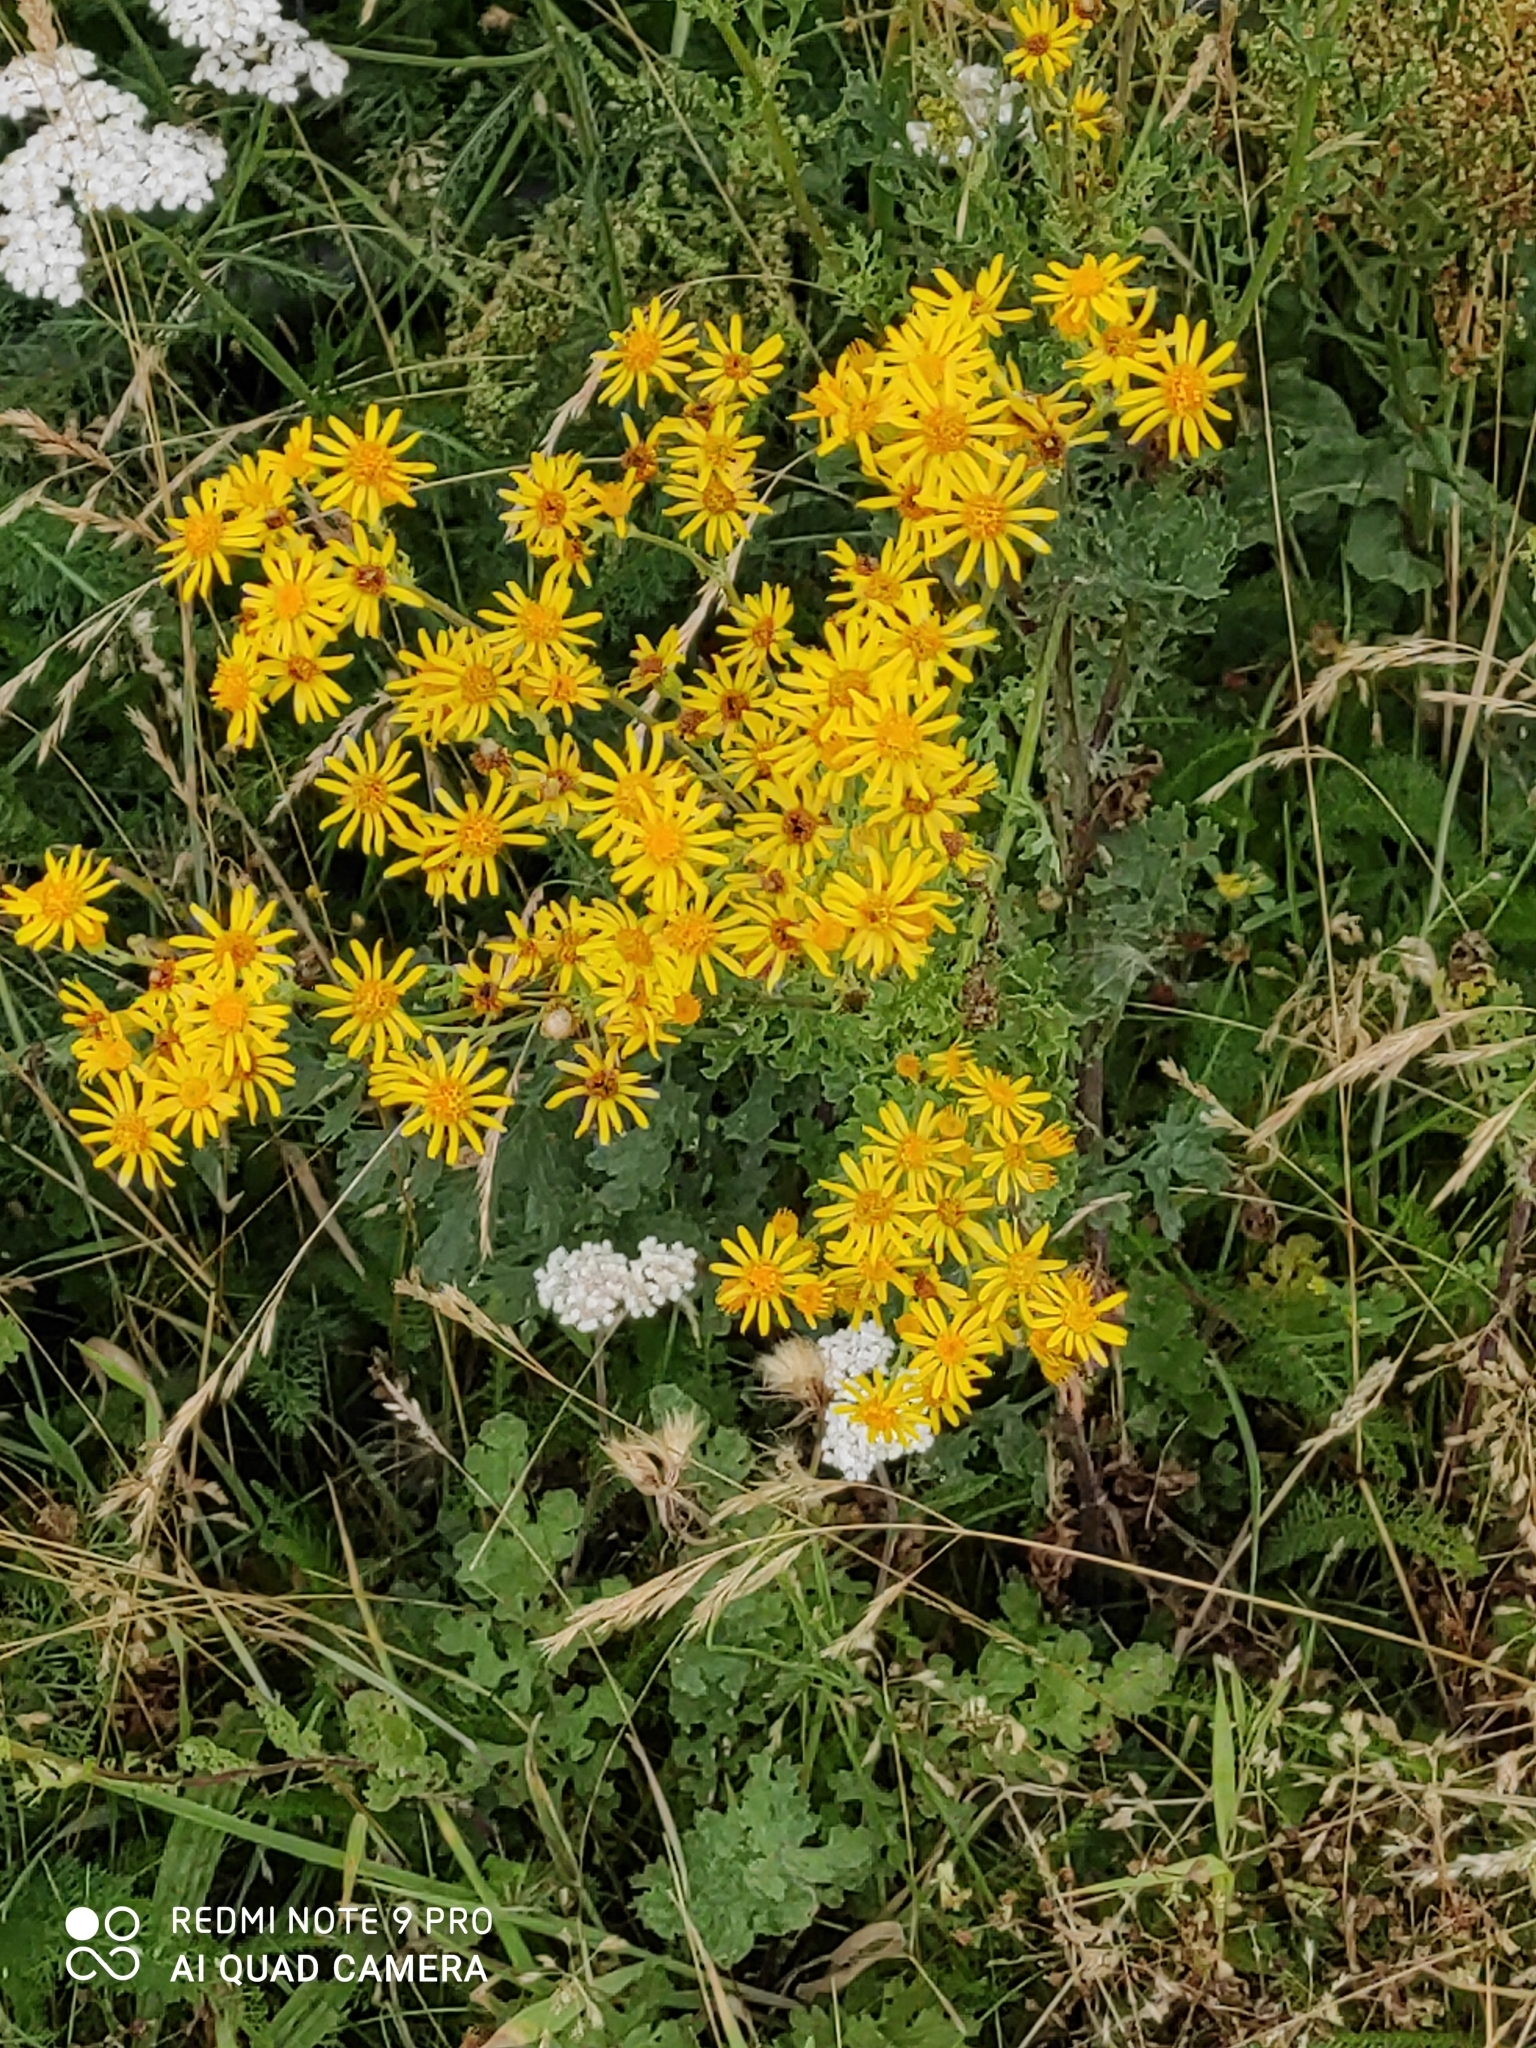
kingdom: Plantae
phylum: Tracheophyta
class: Magnoliopsida
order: Asterales
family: Asteraceae
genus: Jacobaea
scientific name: Jacobaea vulgaris
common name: Stinking willie
